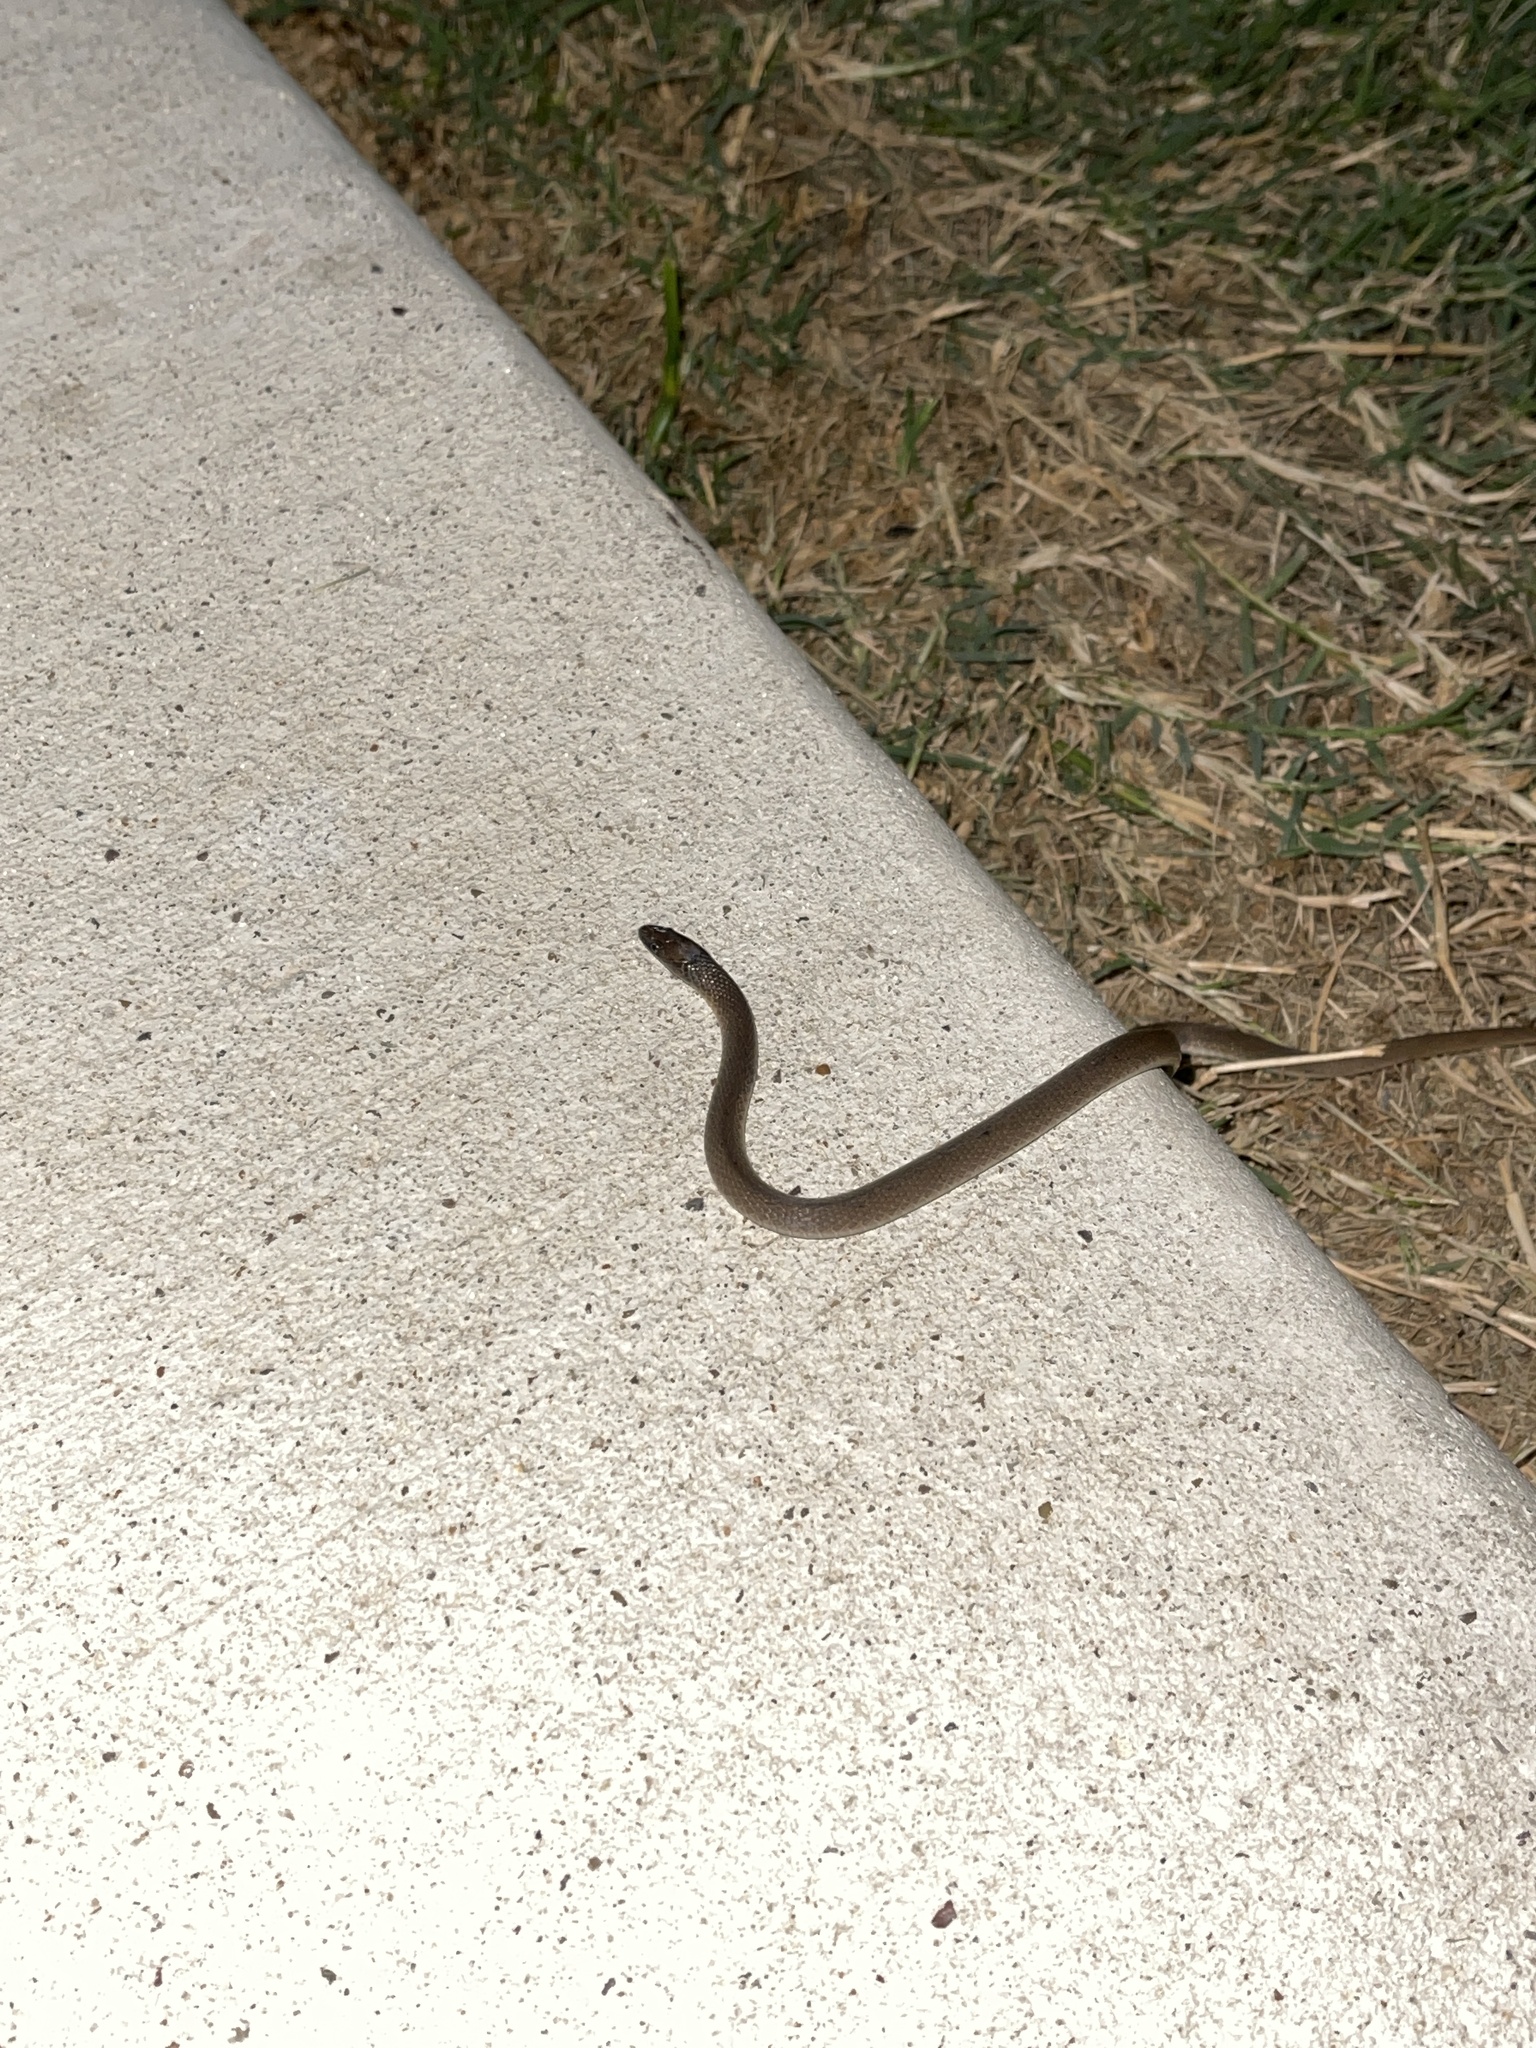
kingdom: Animalia
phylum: Chordata
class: Squamata
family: Colubridae
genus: Haldea
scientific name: Haldea striatula
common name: Rough earth snake
